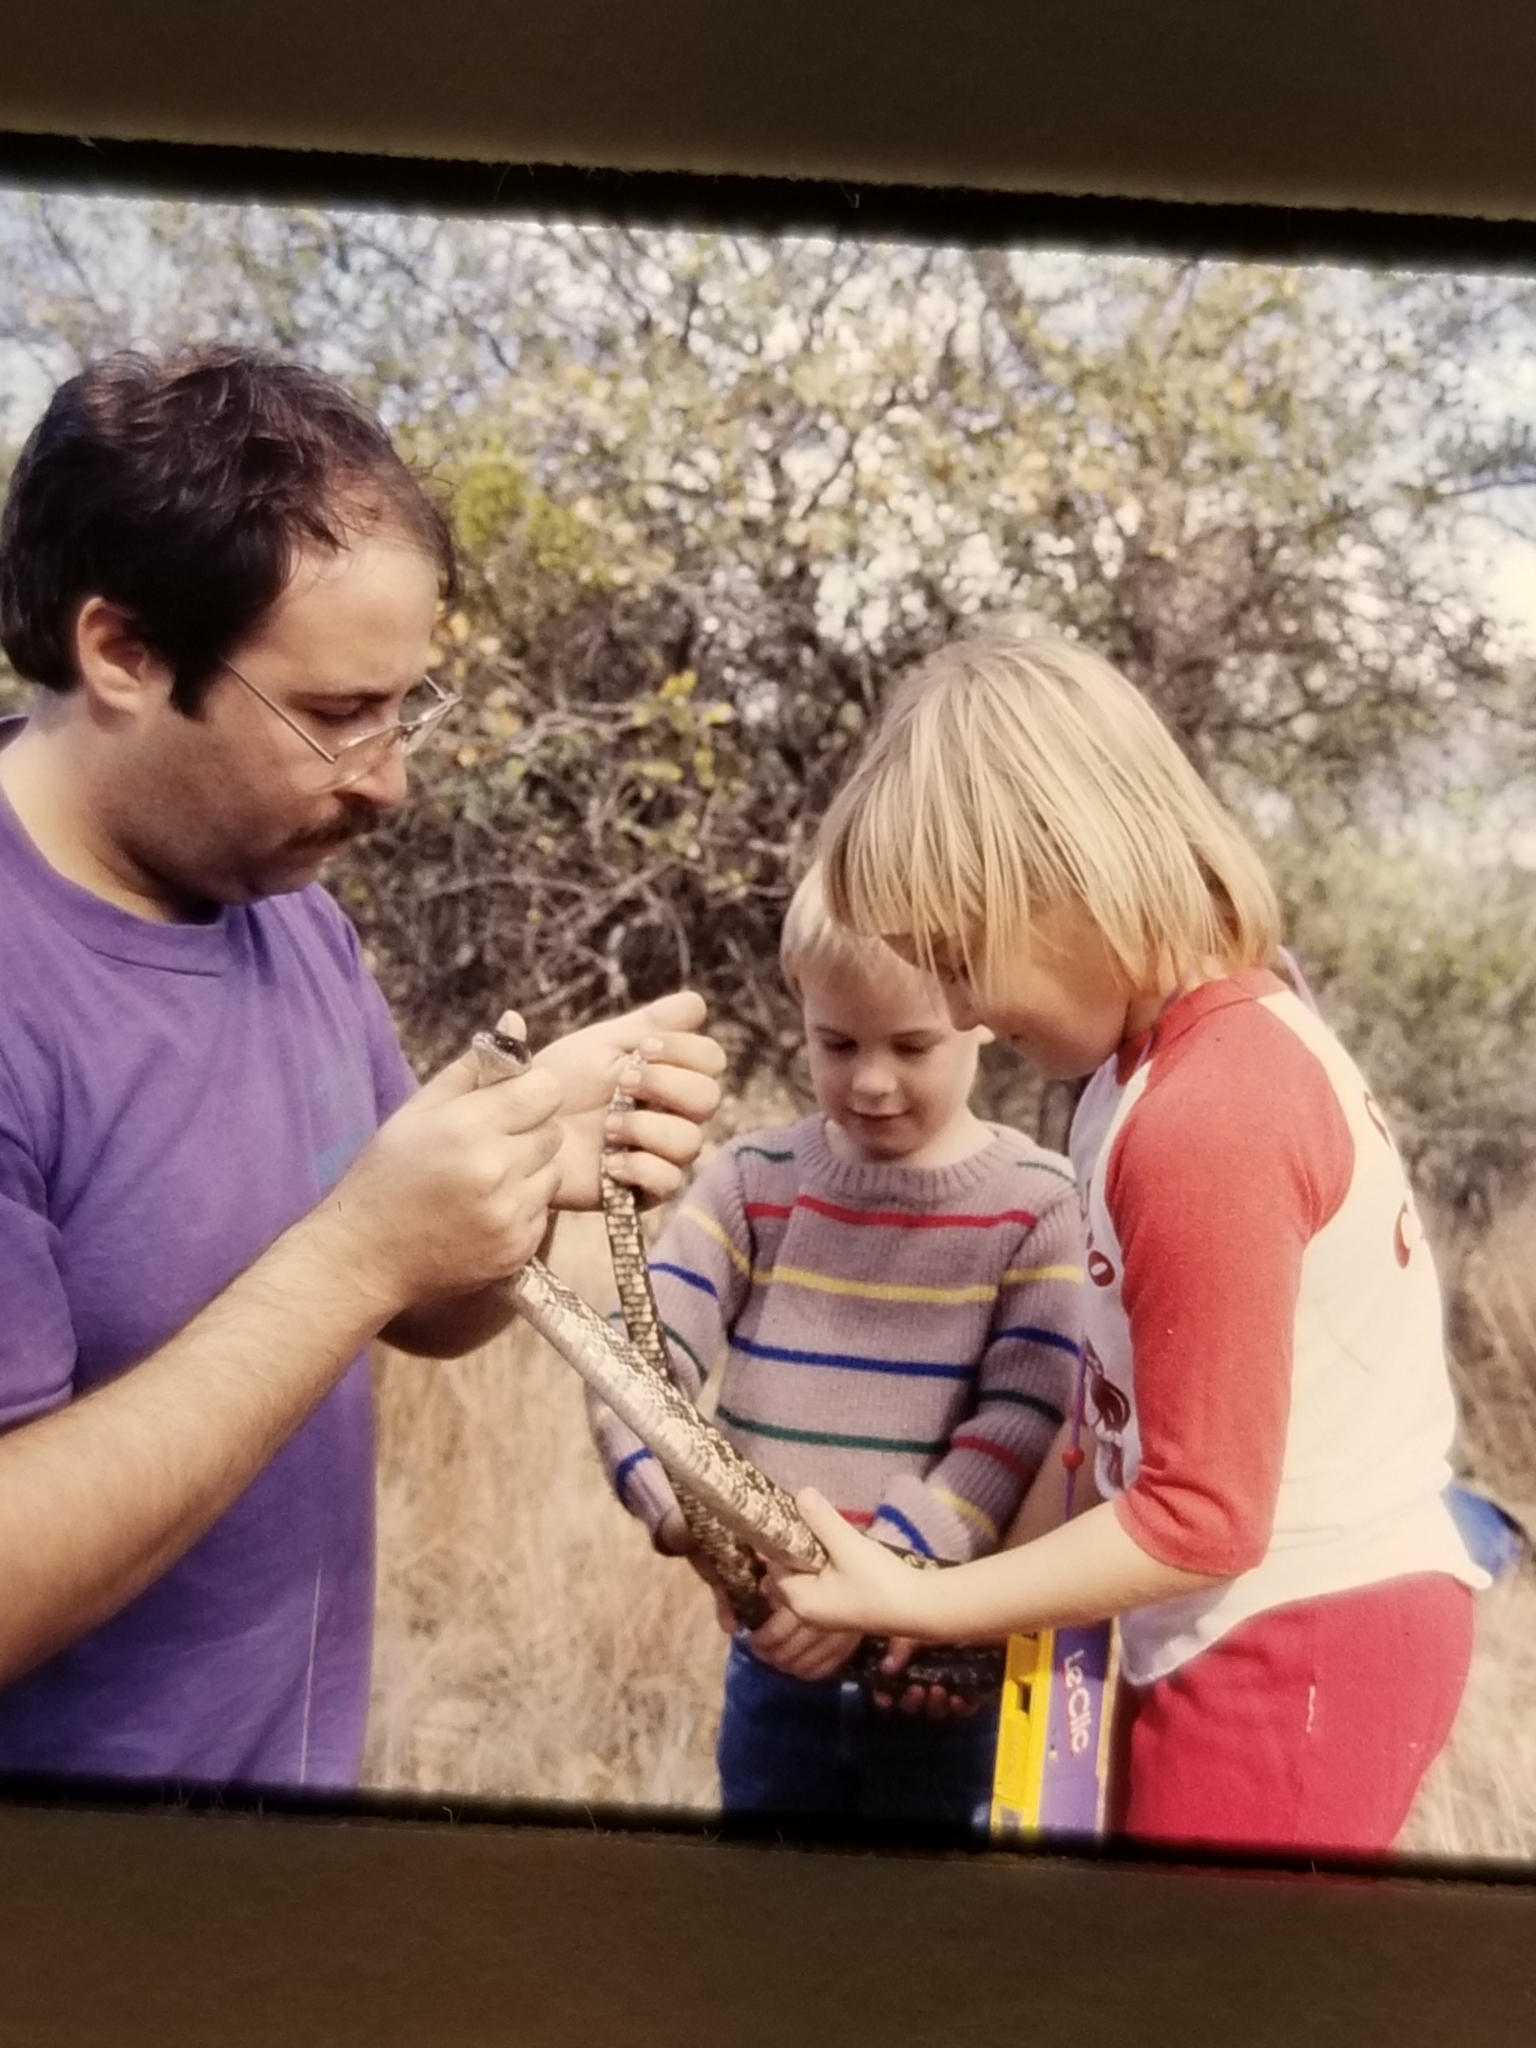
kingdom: Animalia
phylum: Chordata
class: Squamata
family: Colubridae
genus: Pantherophis
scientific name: Pantherophis obsoletus
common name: Black rat snake
